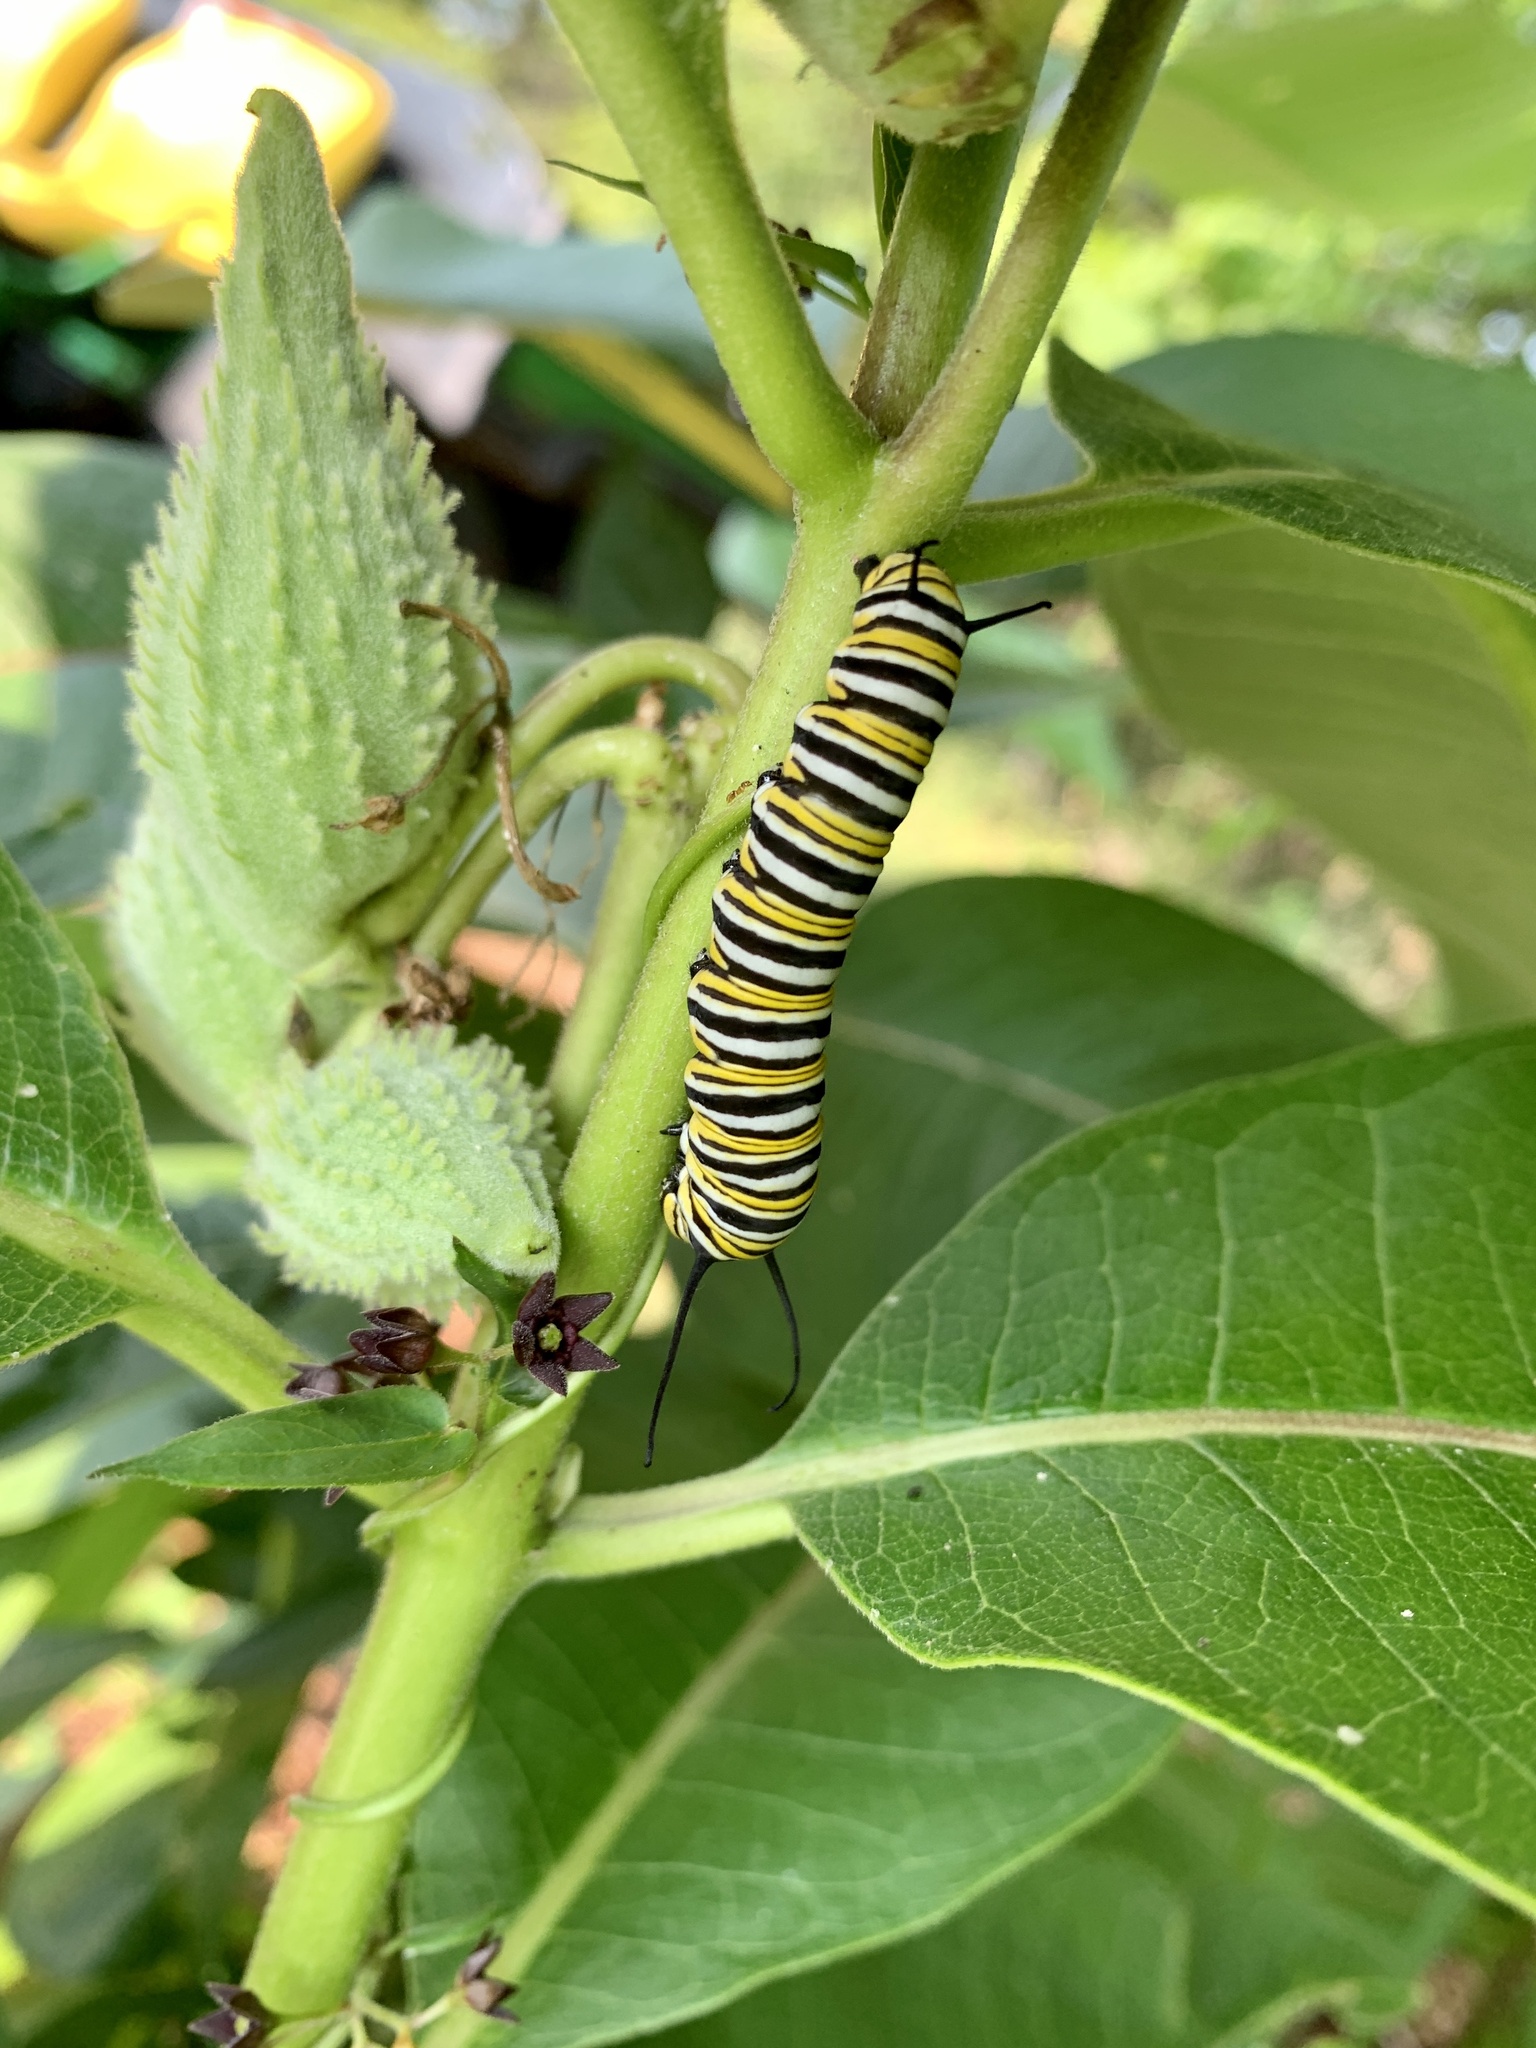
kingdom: Animalia
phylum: Arthropoda
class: Insecta
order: Lepidoptera
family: Nymphalidae
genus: Danaus
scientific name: Danaus plexippus
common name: Monarch
